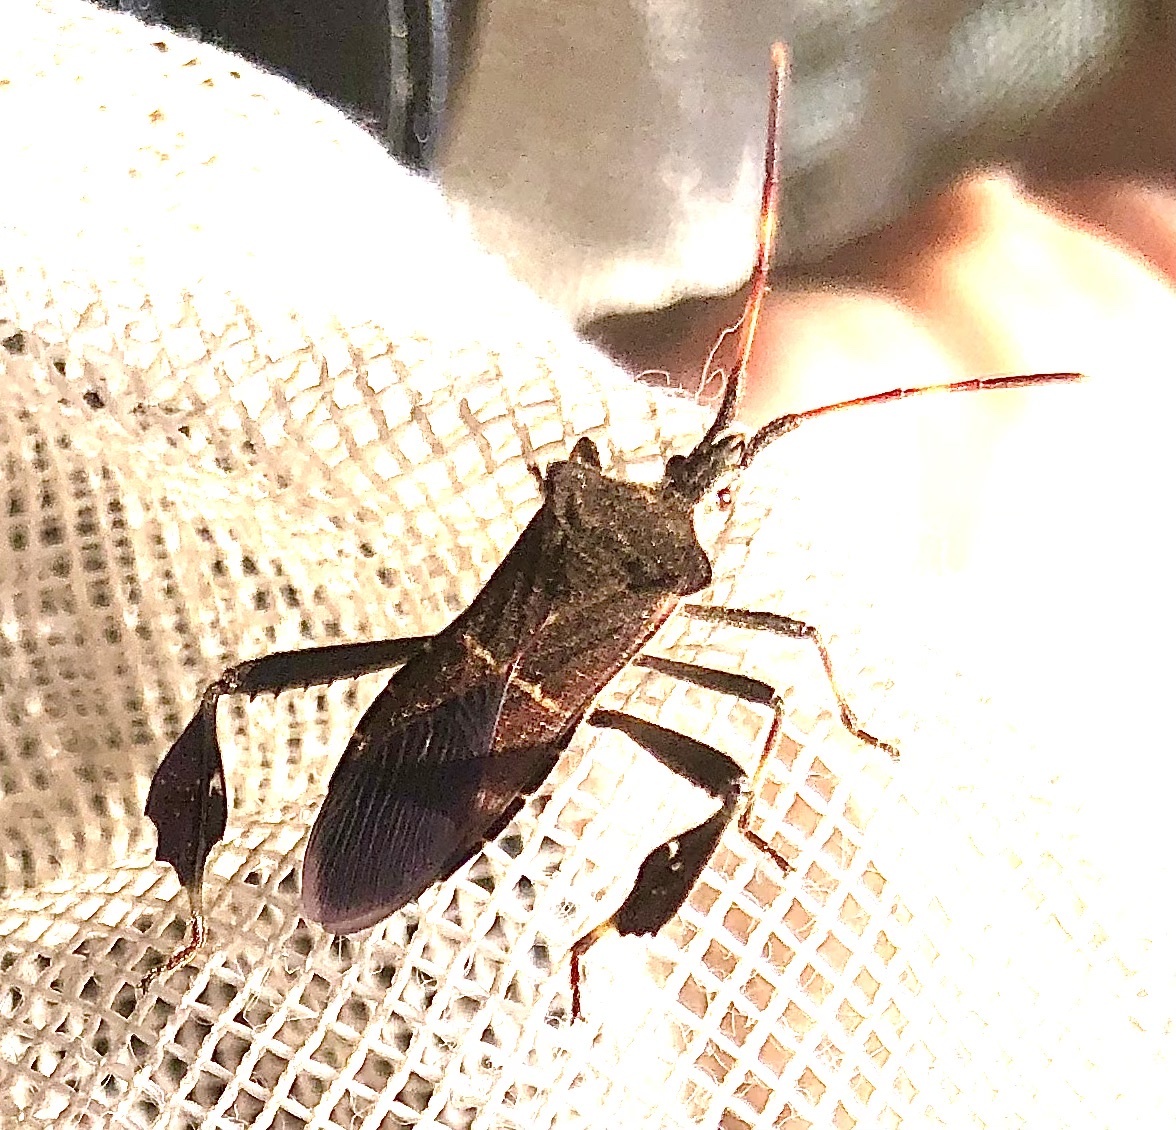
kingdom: Animalia
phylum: Arthropoda
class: Insecta
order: Hemiptera
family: Coreidae
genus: Leptoglossus
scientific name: Leptoglossus phyllopus
